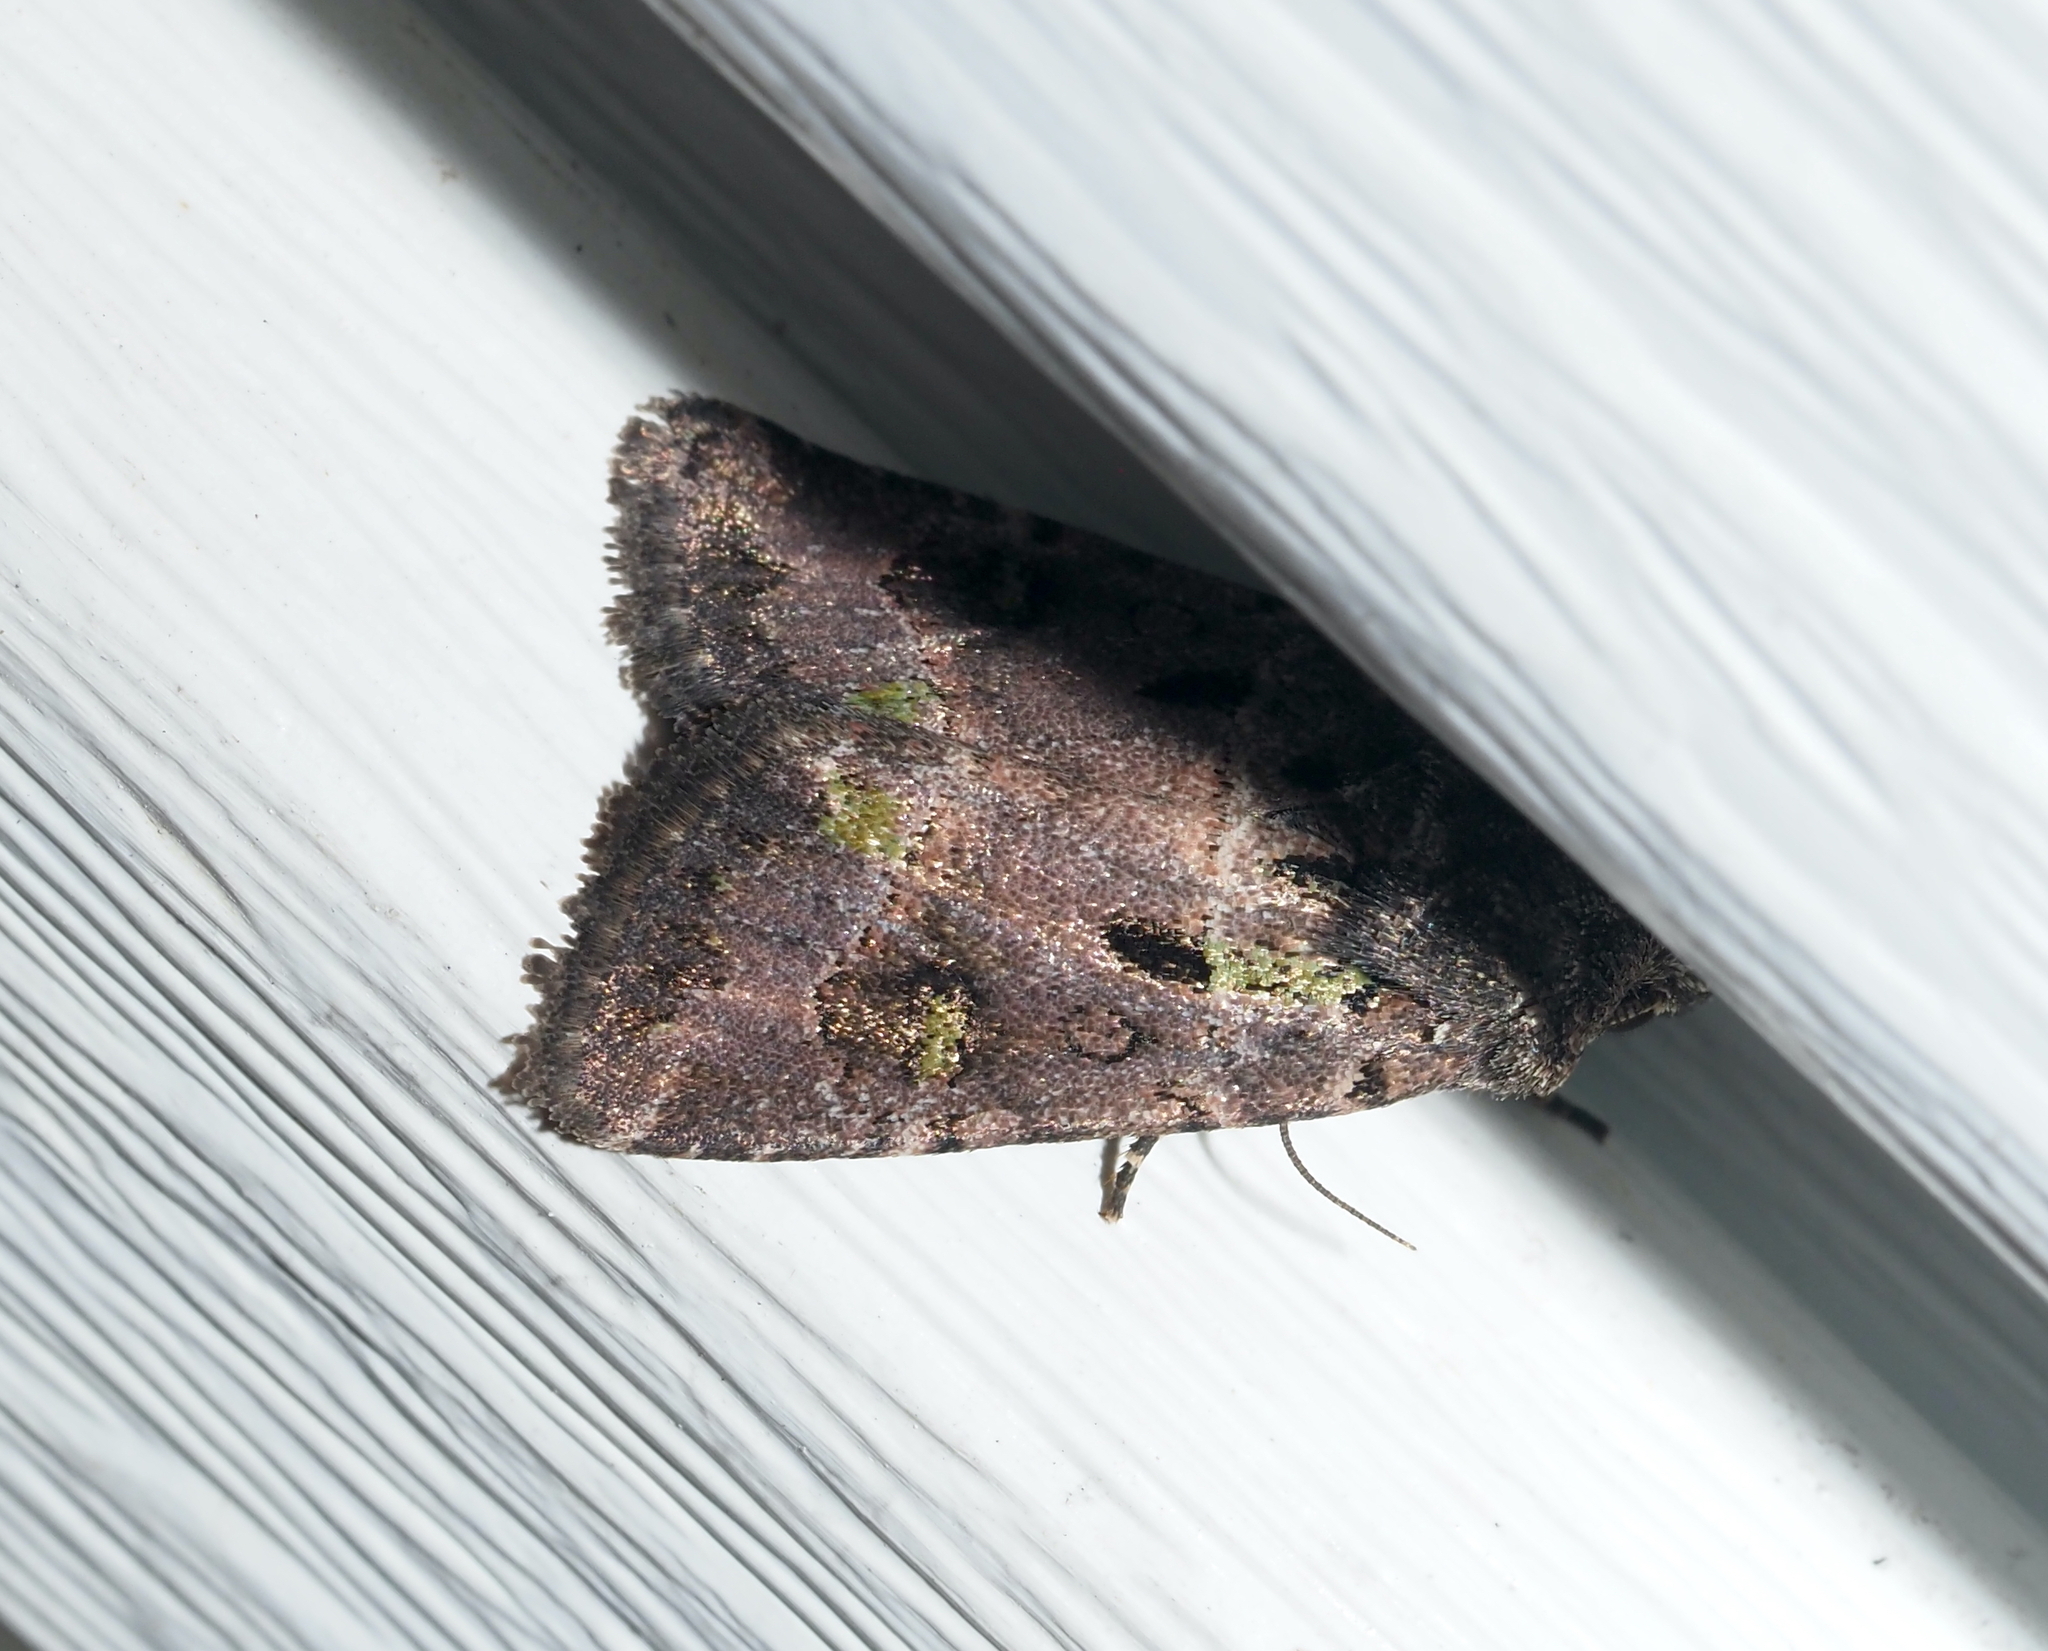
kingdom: Animalia
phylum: Arthropoda
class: Insecta
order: Lepidoptera
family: Noctuidae
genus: Lacinipolia
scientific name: Lacinipolia renigera
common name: Kidney-spotted minor
